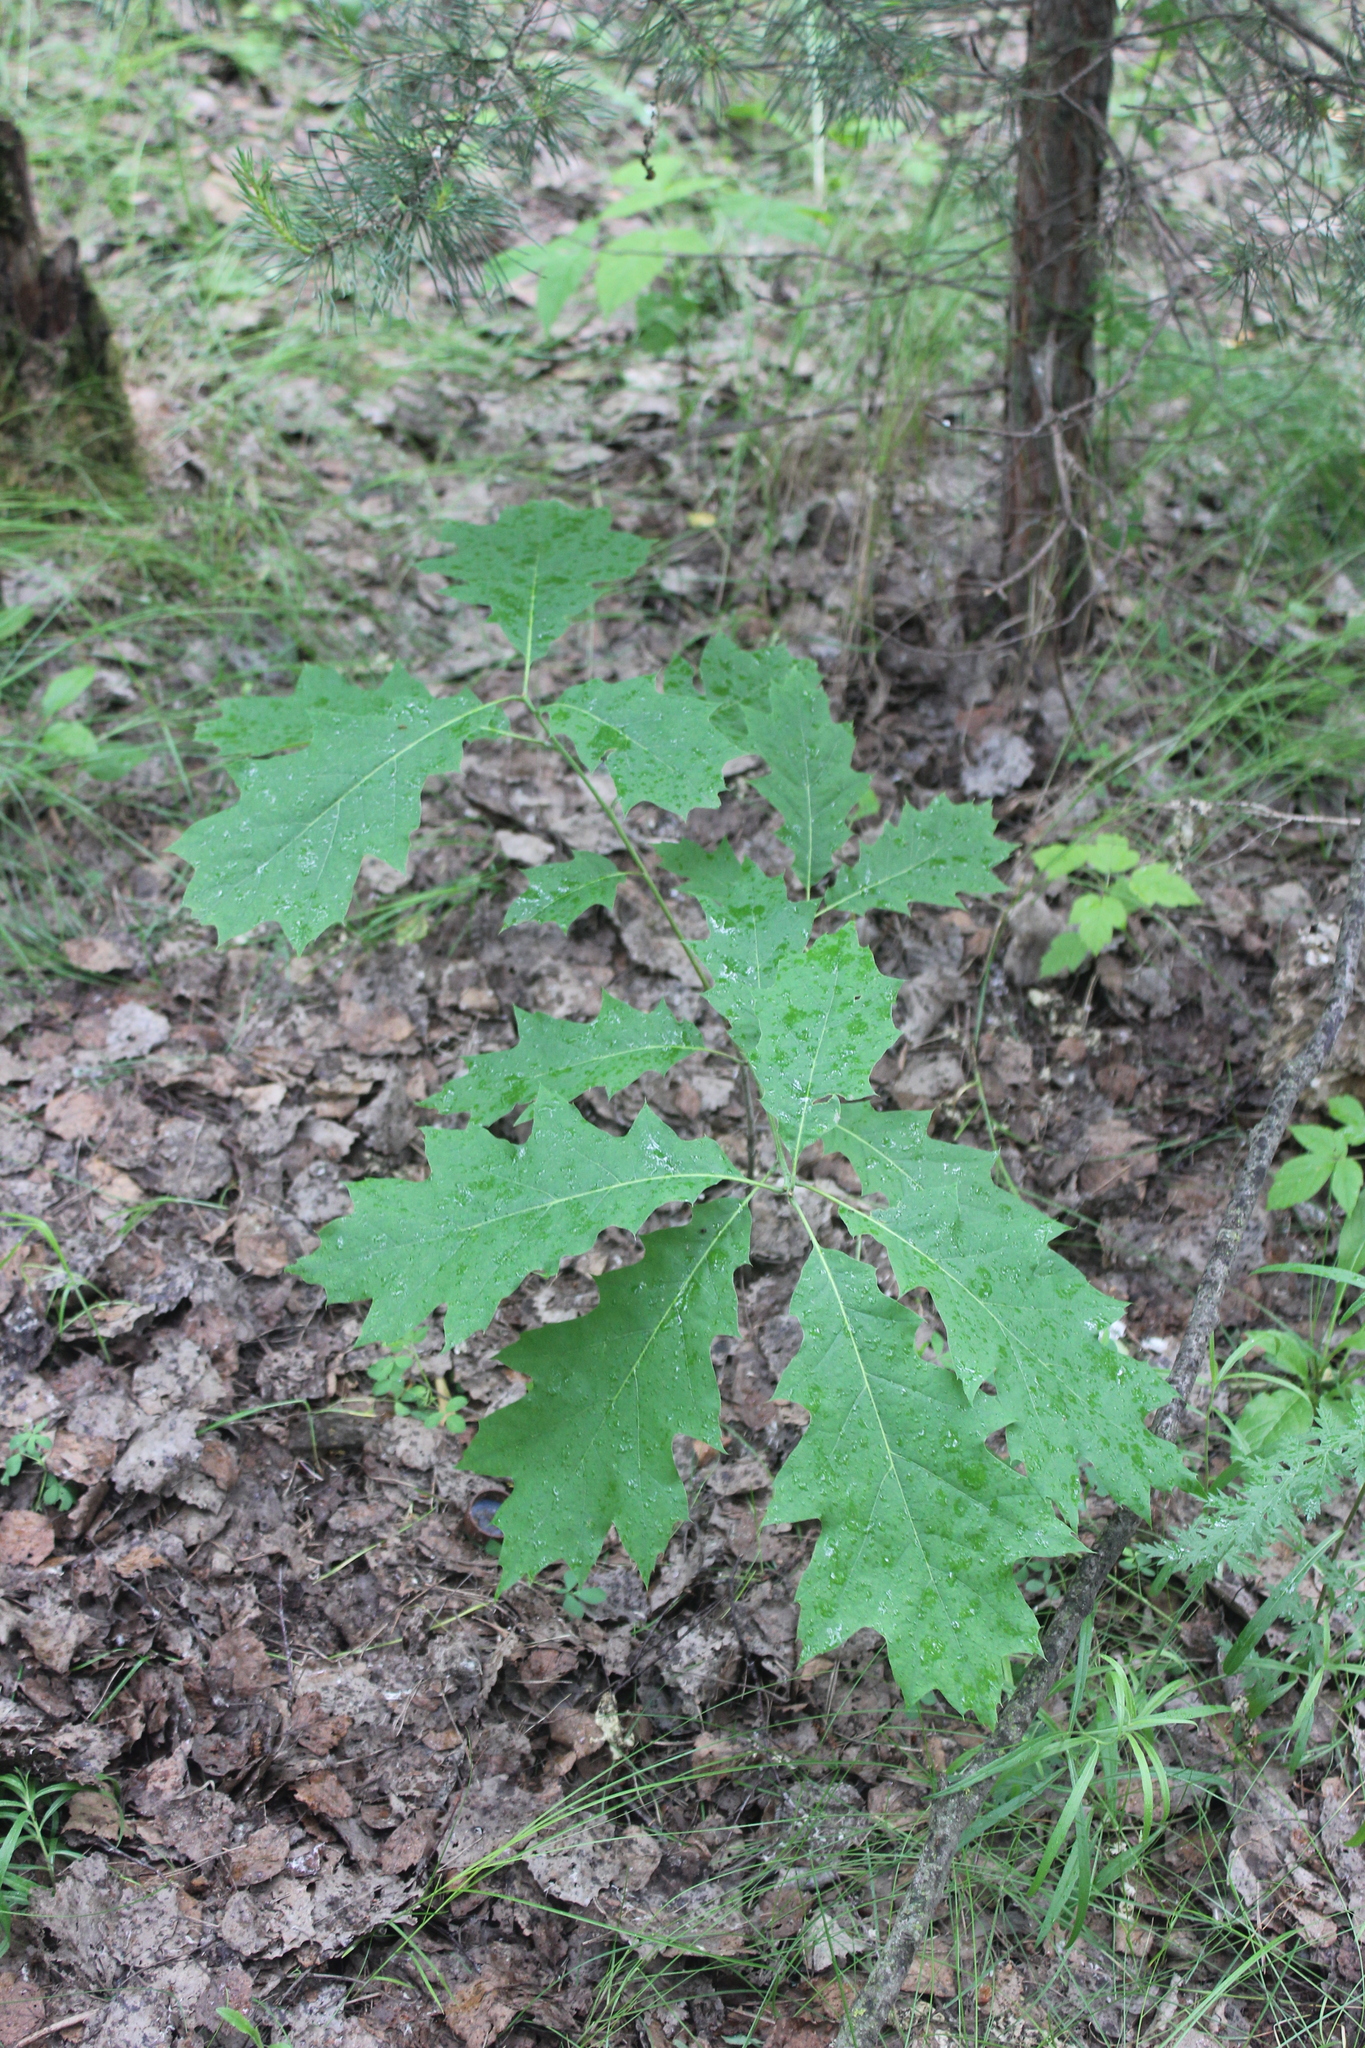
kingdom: Plantae
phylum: Tracheophyta
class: Magnoliopsida
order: Fagales
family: Fagaceae
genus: Quercus
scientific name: Quercus rubra
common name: Red oak
